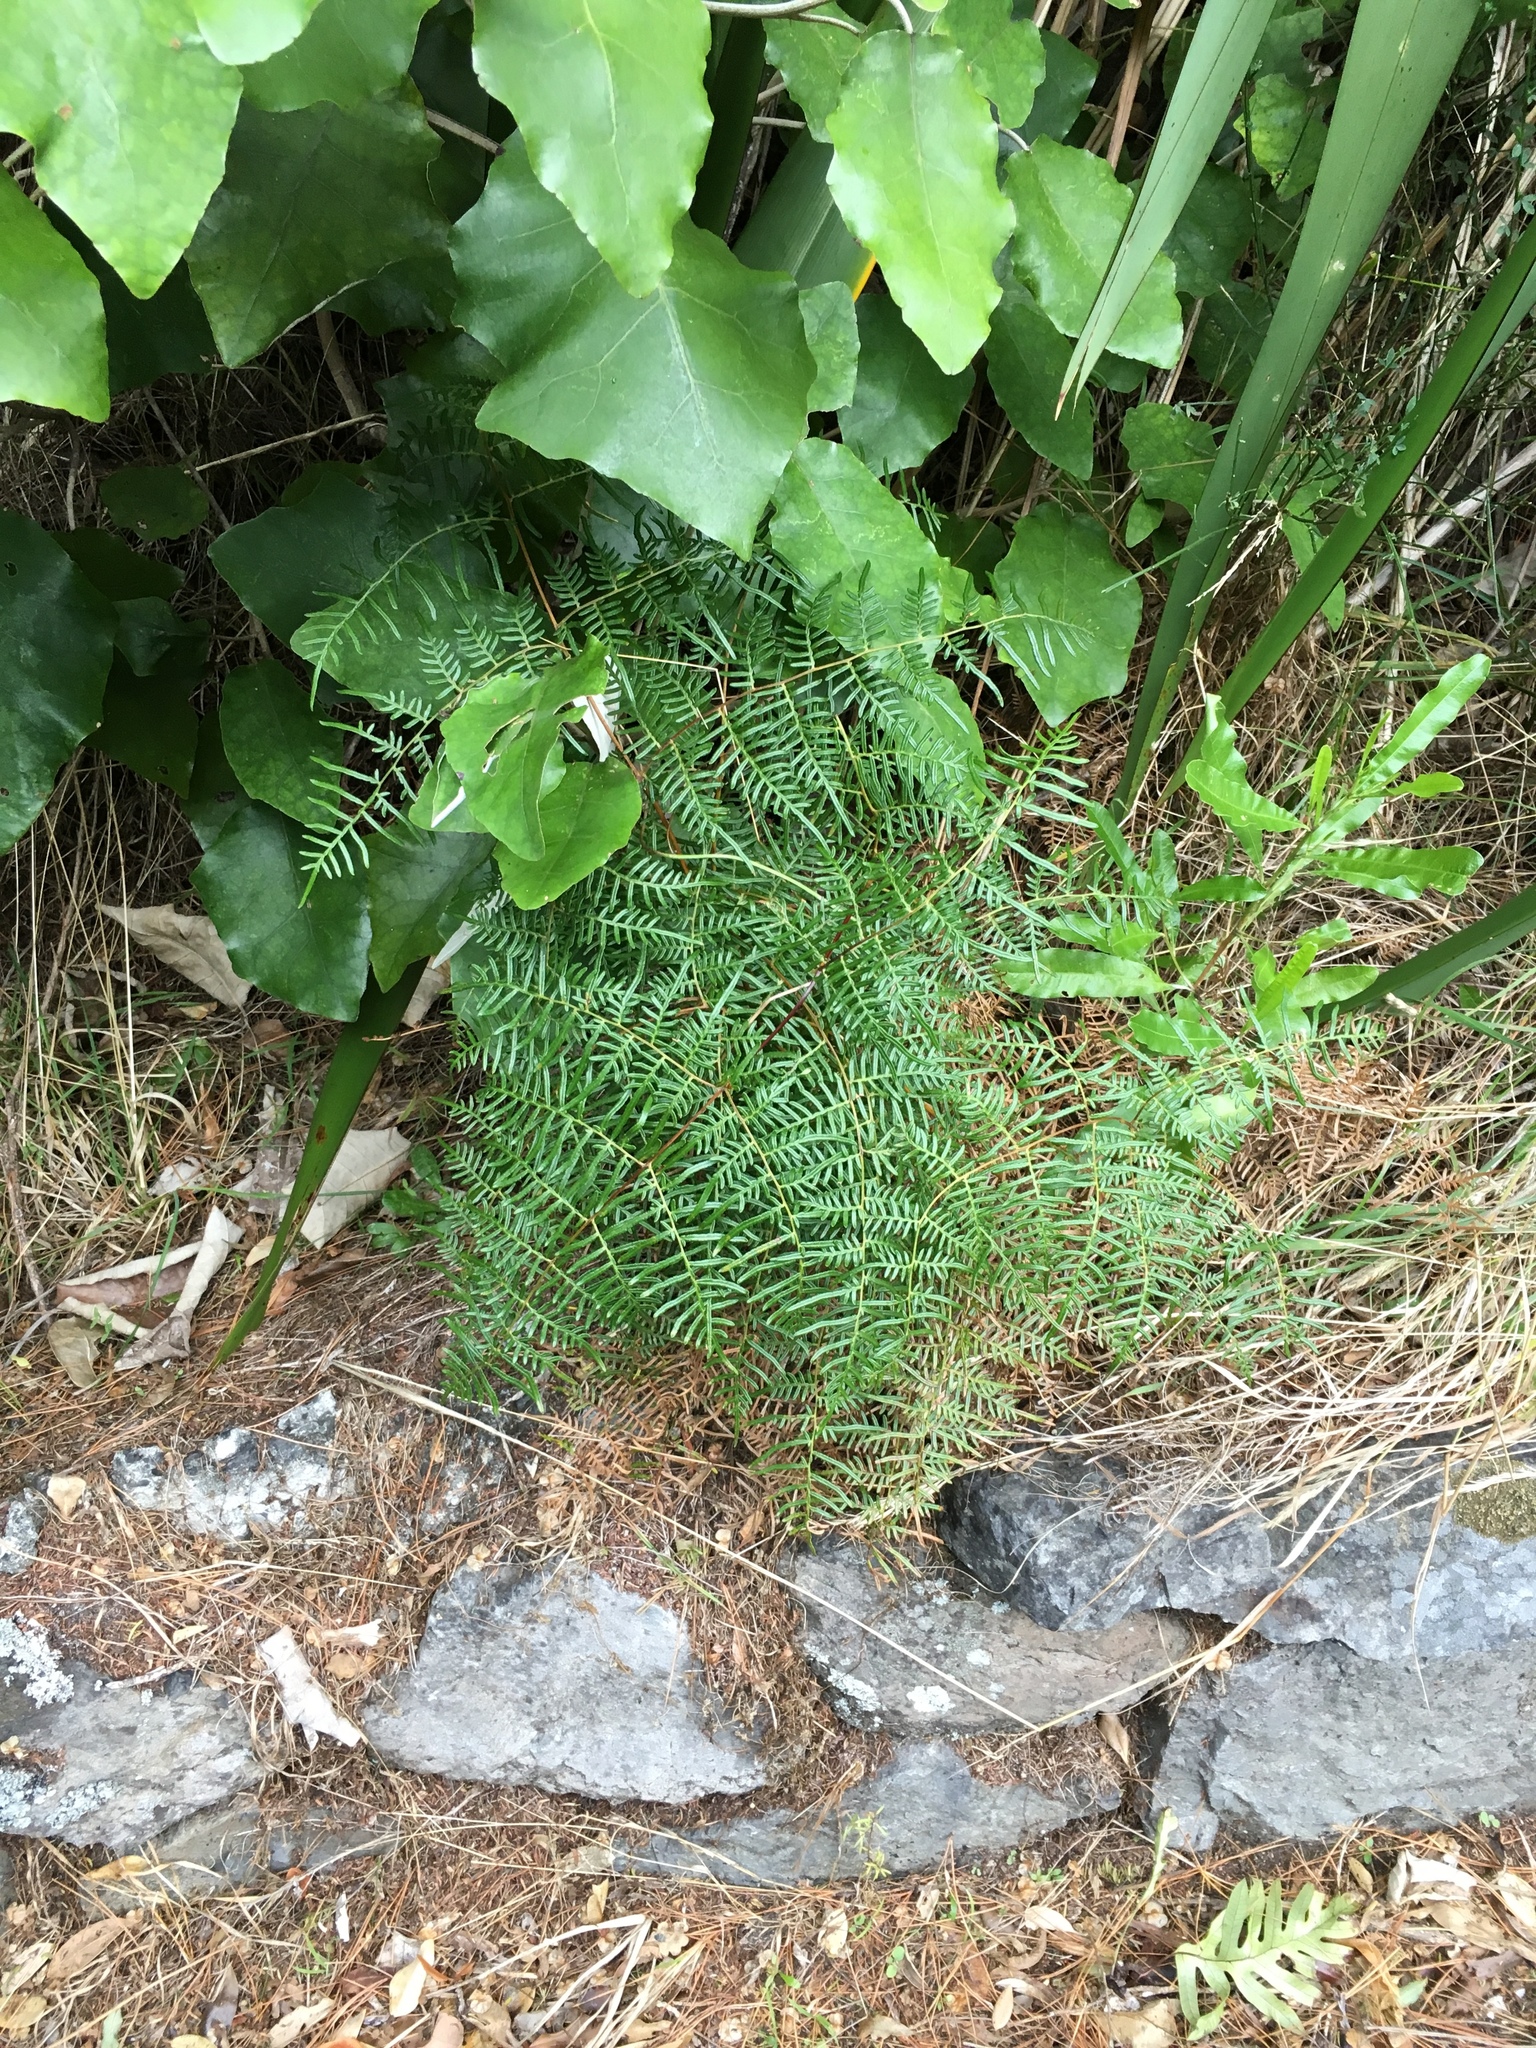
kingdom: Plantae
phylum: Tracheophyta
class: Polypodiopsida
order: Polypodiales
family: Dennstaedtiaceae
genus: Pteridium
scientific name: Pteridium esculentum
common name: Bracken fern
